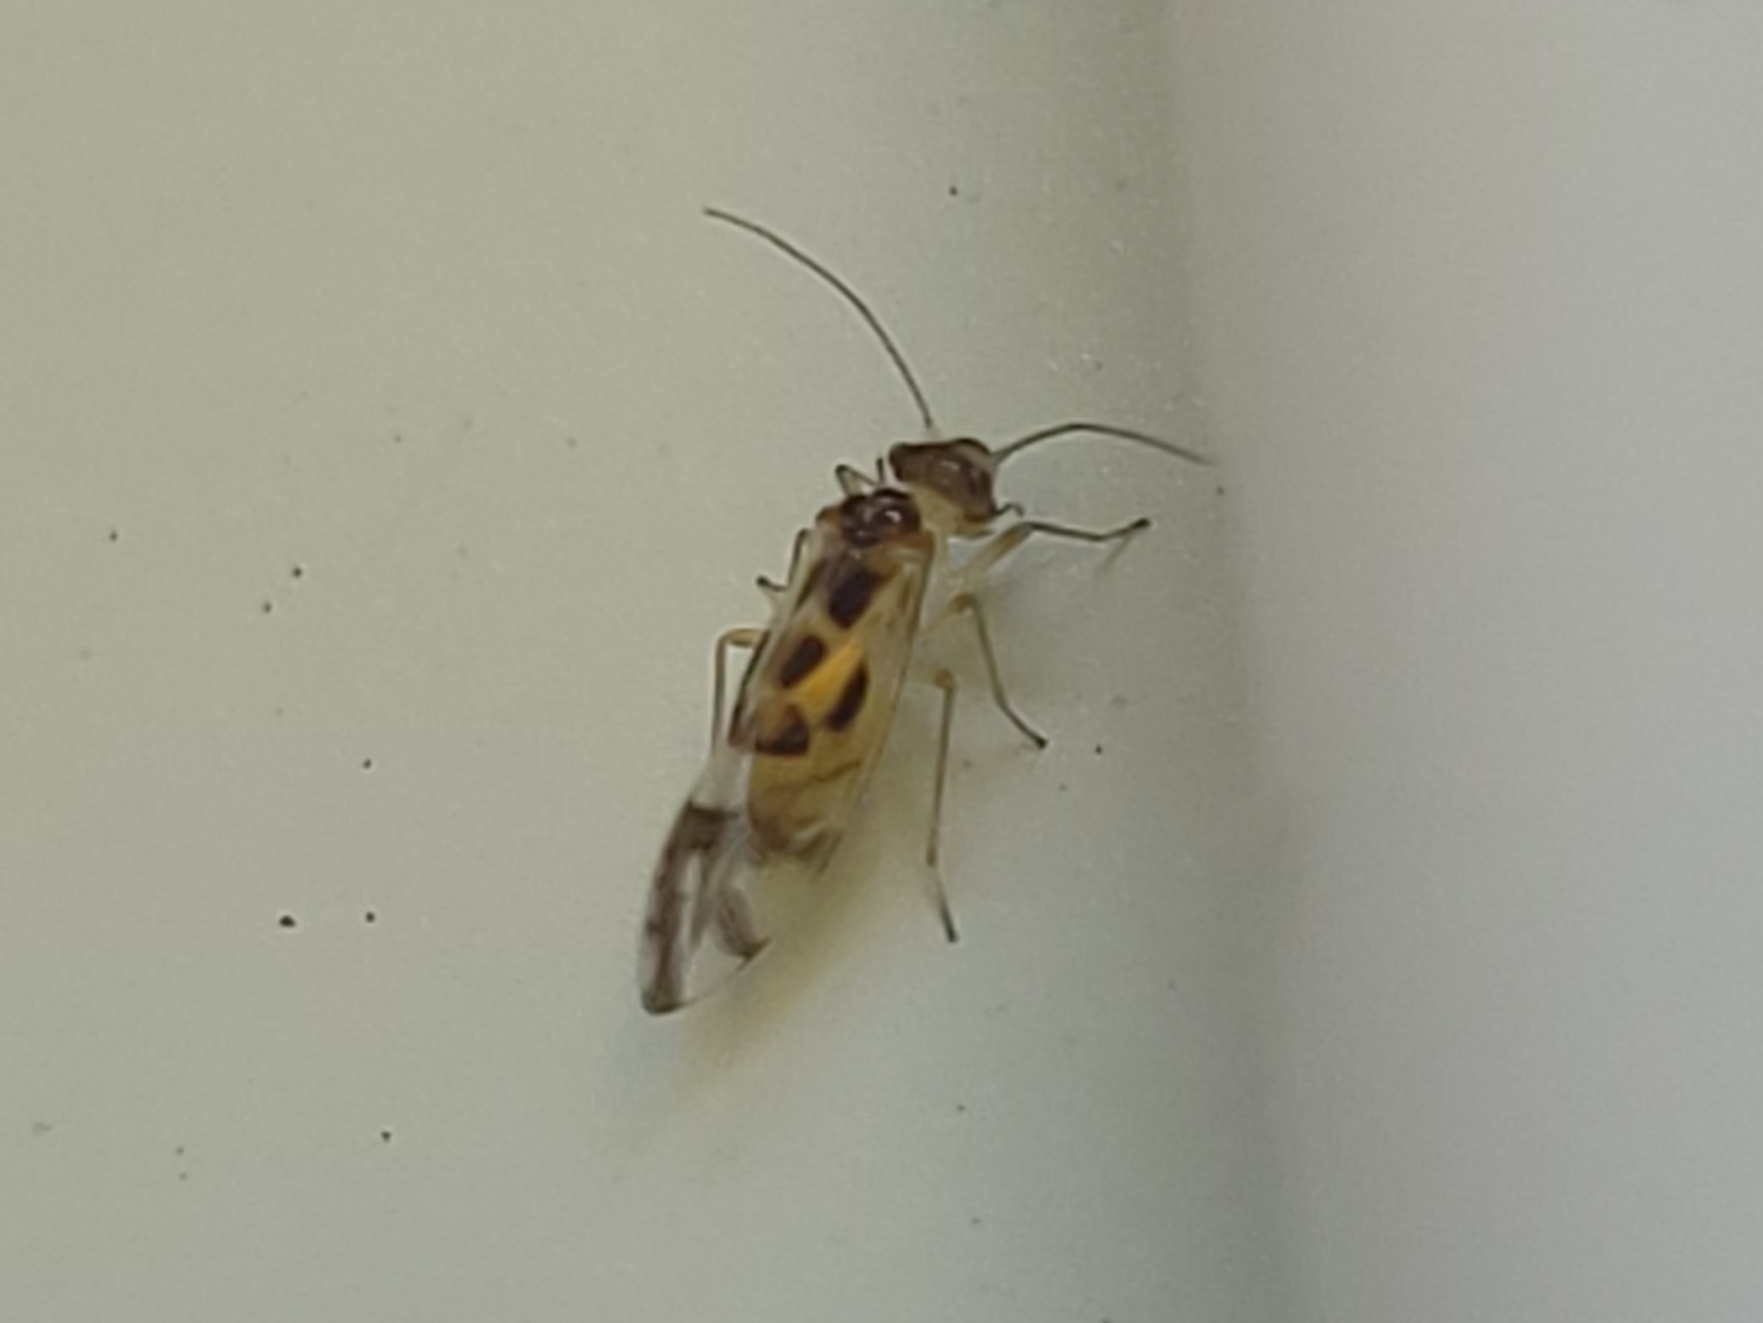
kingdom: Animalia
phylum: Arthropoda
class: Insecta
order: Psocodea
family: Stenopsocidae
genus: Graphopsocus
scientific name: Graphopsocus cruciatus
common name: Lizard bark louse
